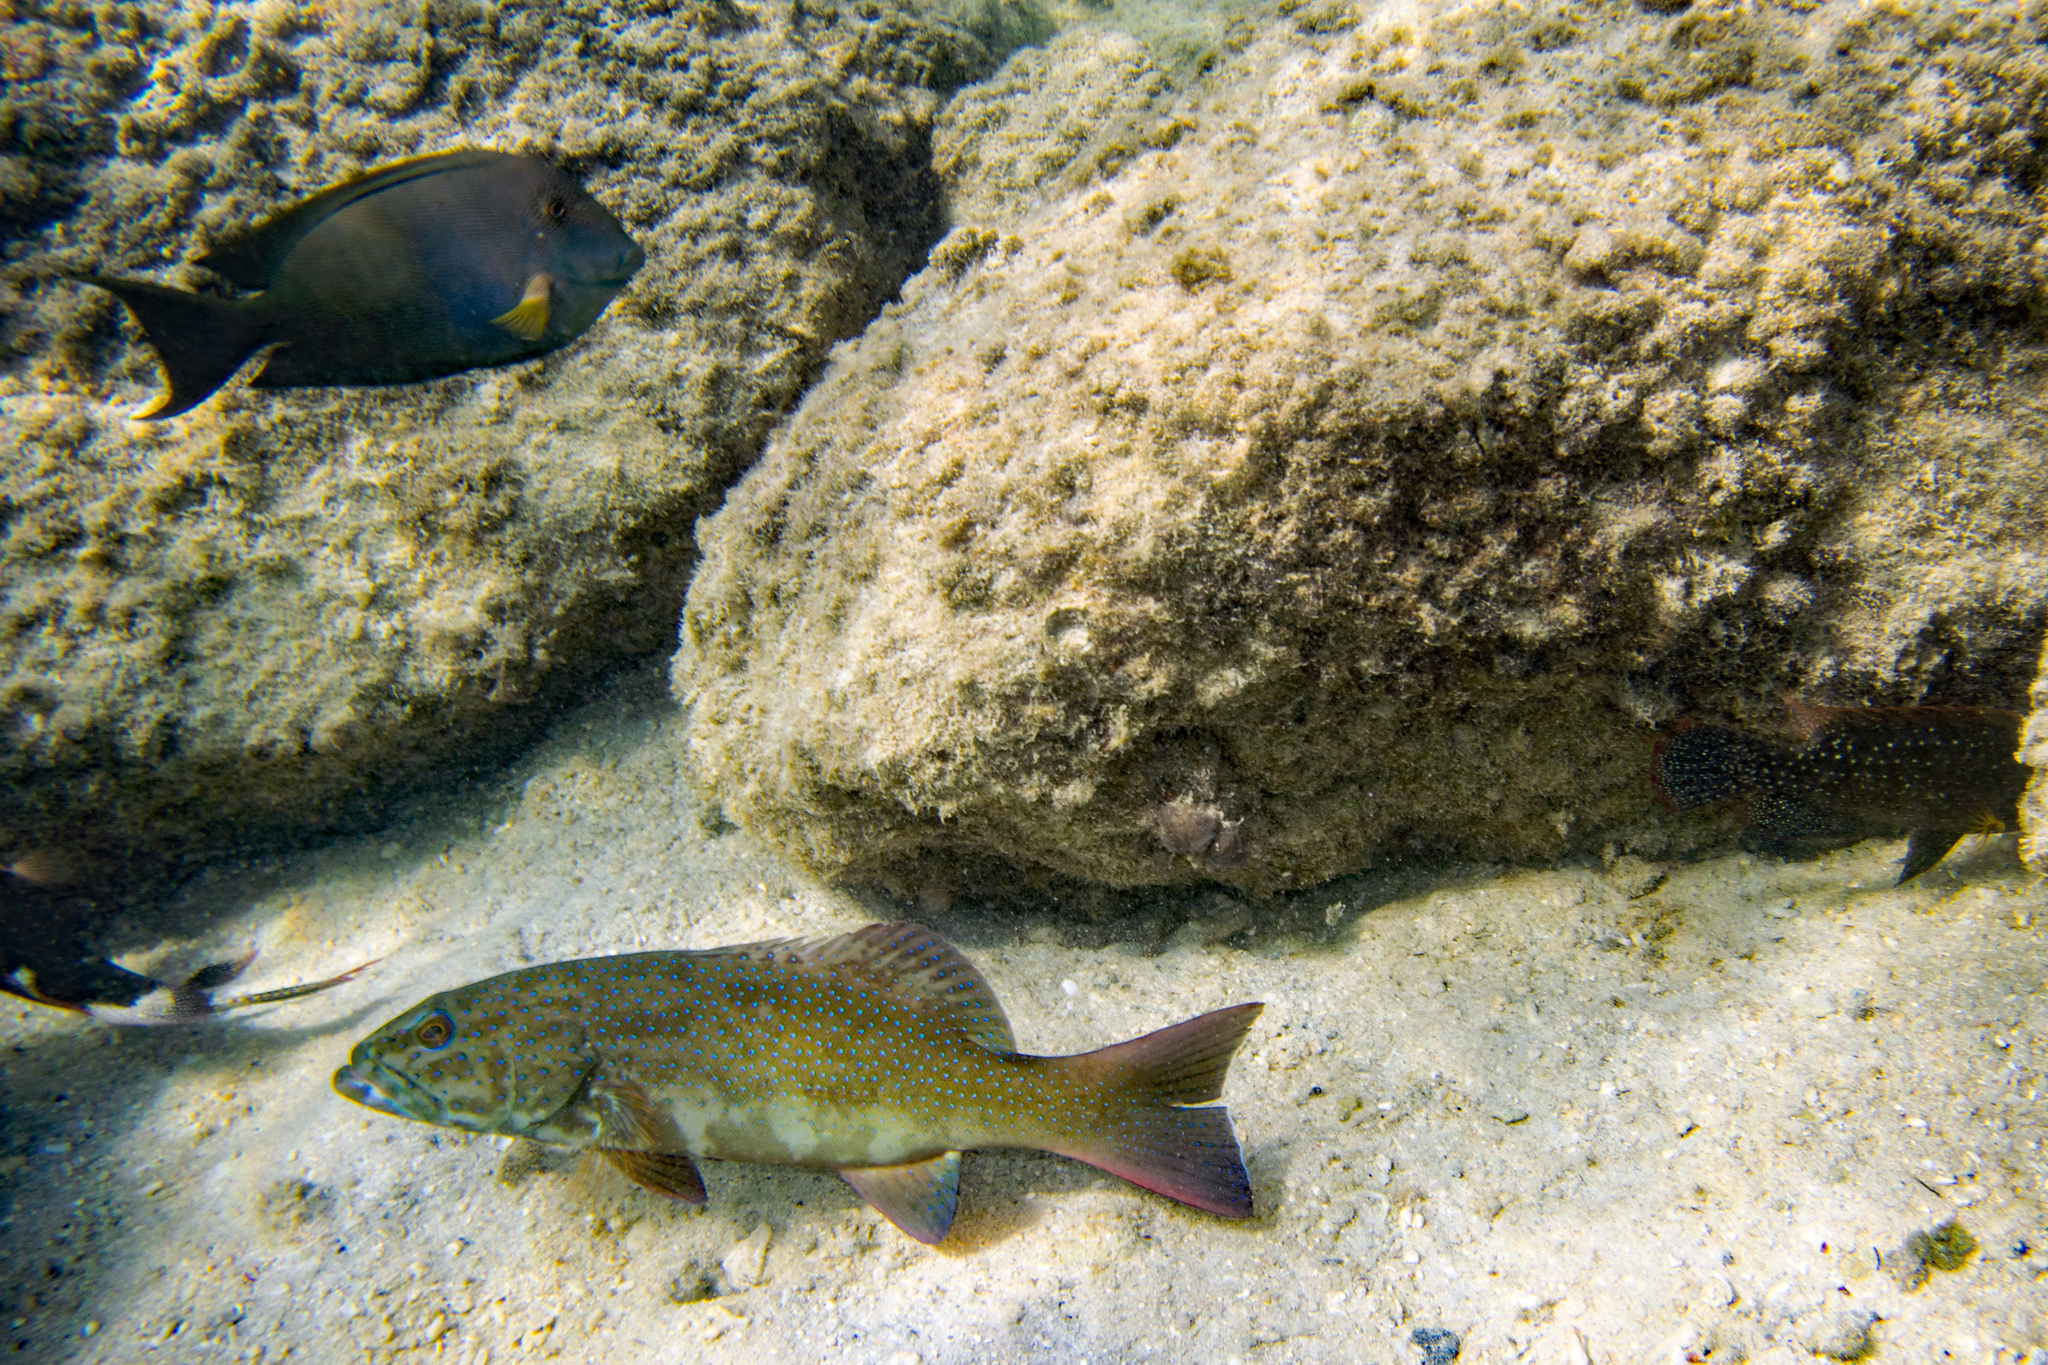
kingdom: Animalia
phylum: Chordata
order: Perciformes
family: Acanthuridae
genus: Ctenochaetus
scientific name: Ctenochaetus striatus
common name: Bristle-toothed surgeonfish
